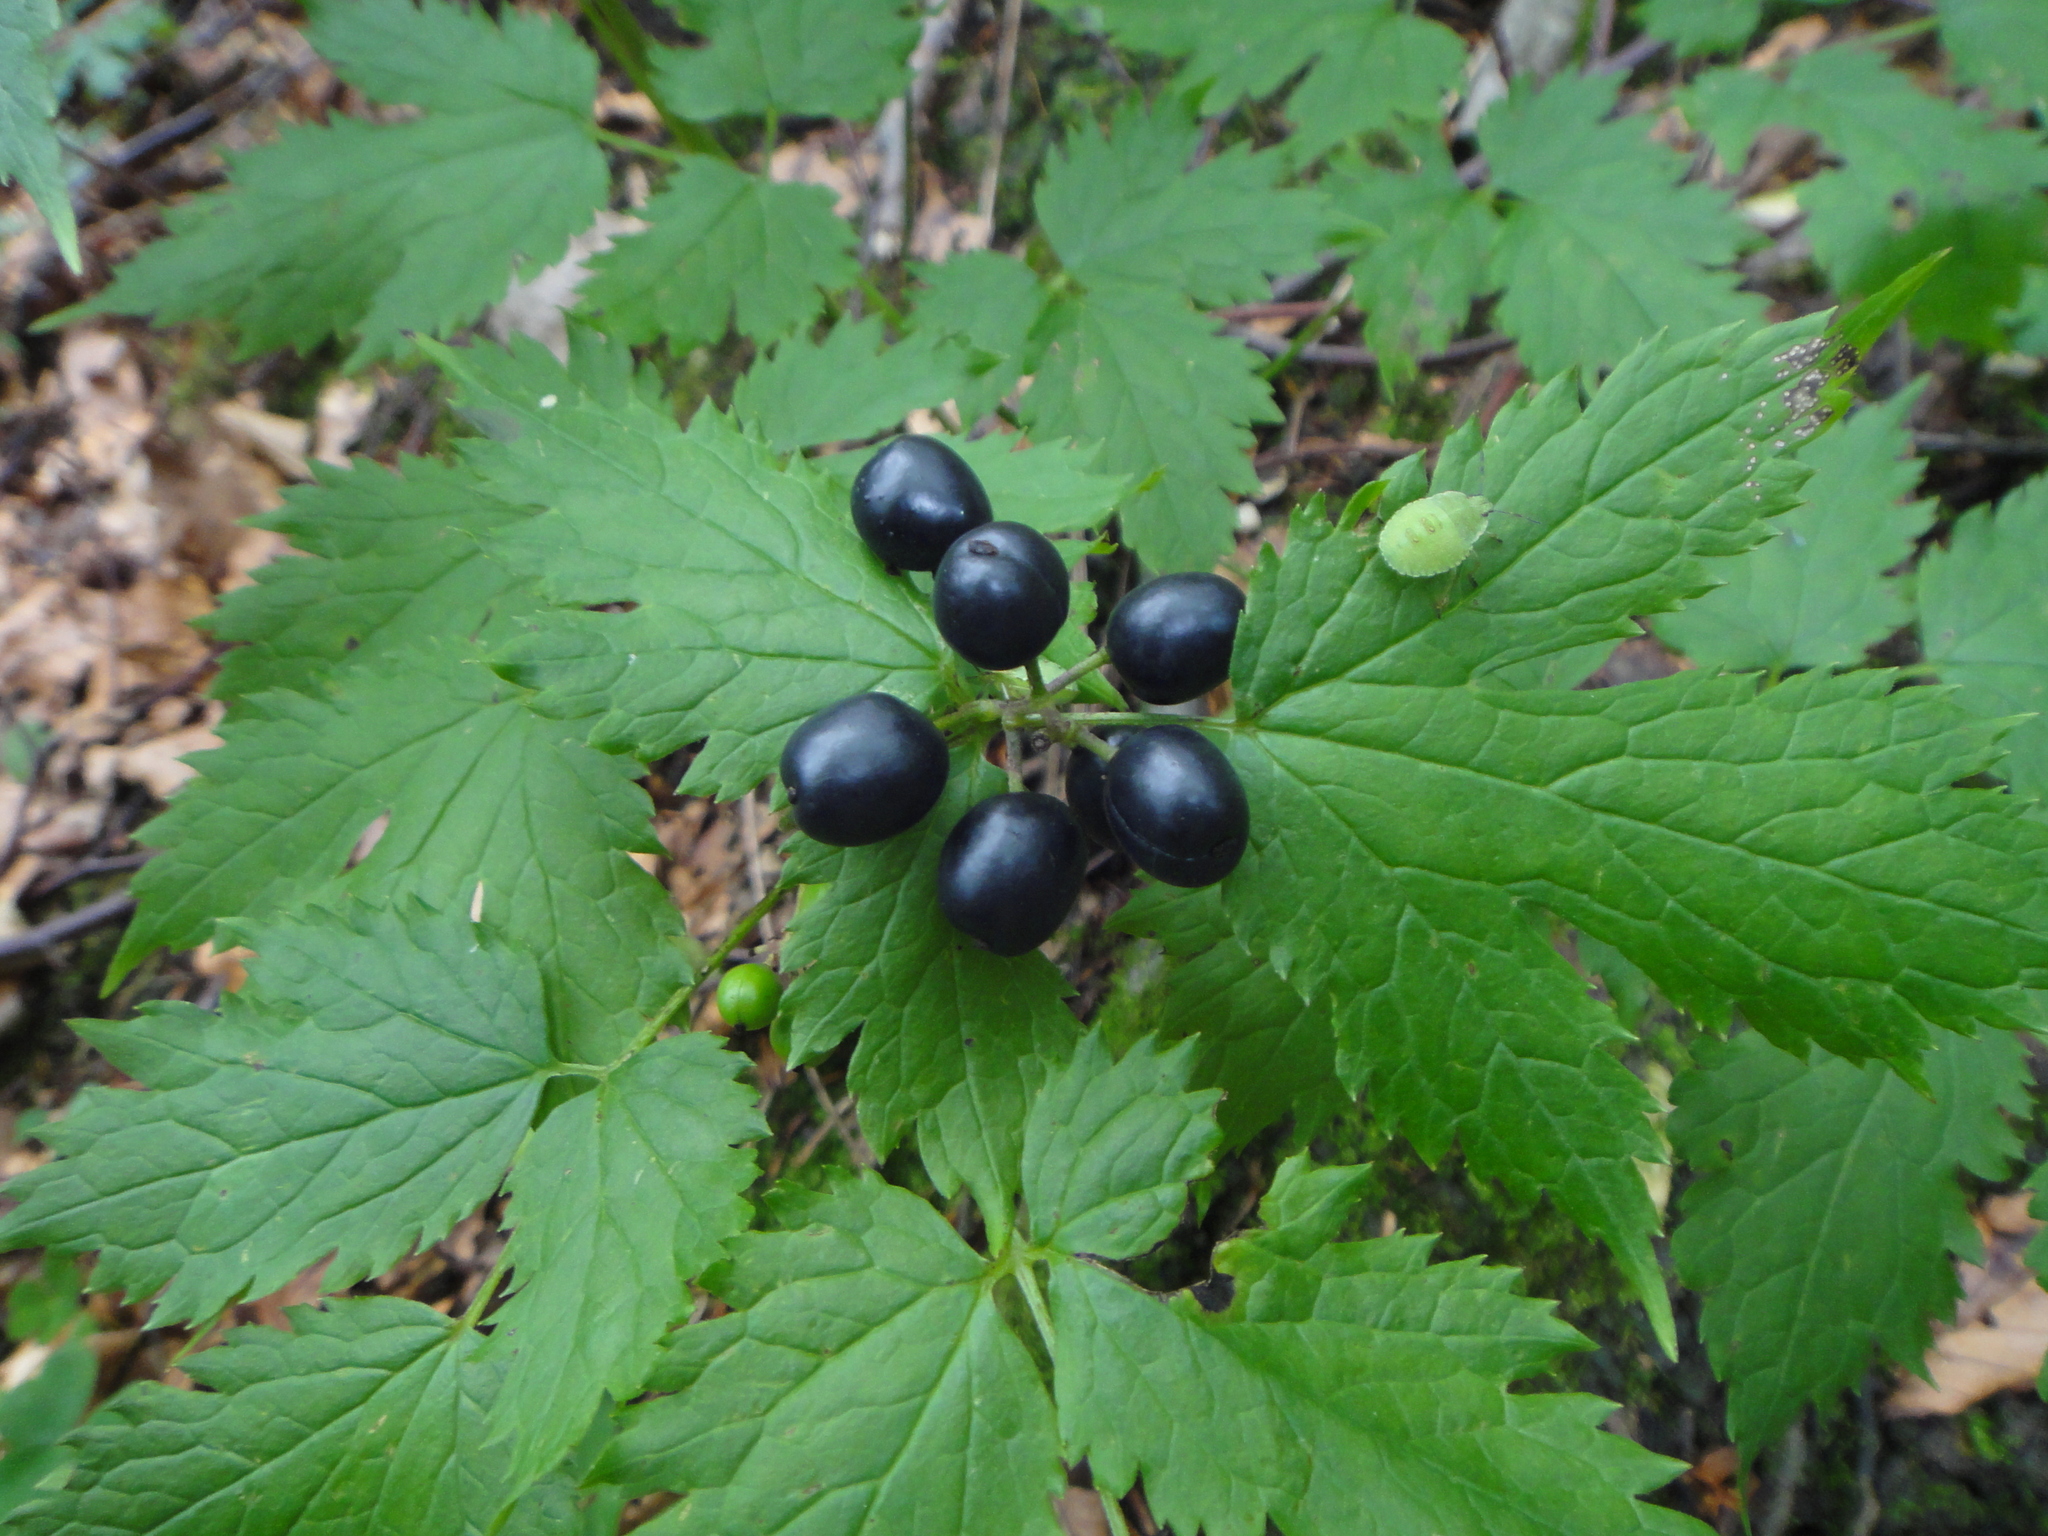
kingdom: Plantae
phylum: Tracheophyta
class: Magnoliopsida
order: Ranunculales
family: Ranunculaceae
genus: Actaea
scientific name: Actaea spicata
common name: Baneberry
